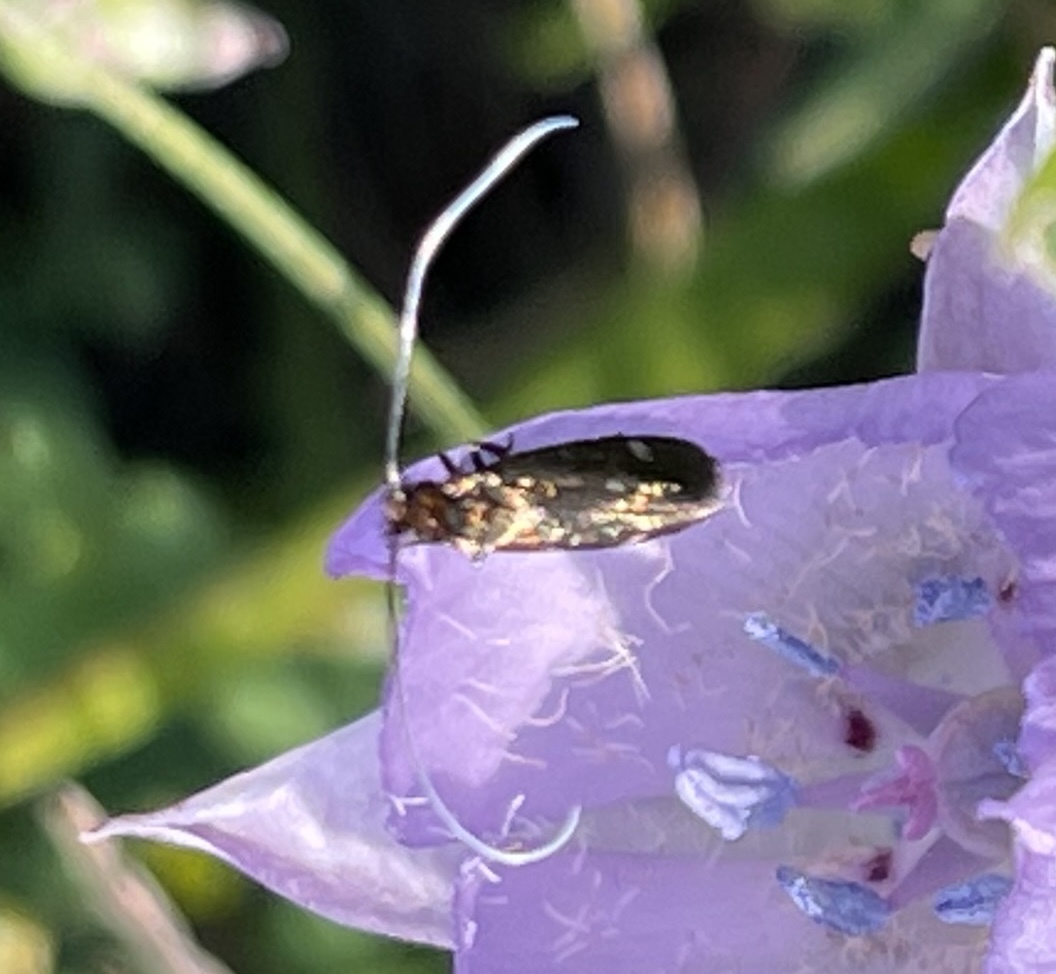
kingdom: Animalia
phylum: Arthropoda
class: Insecta
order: Lepidoptera
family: Adelidae
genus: Adela
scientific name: Adela flammeusella
